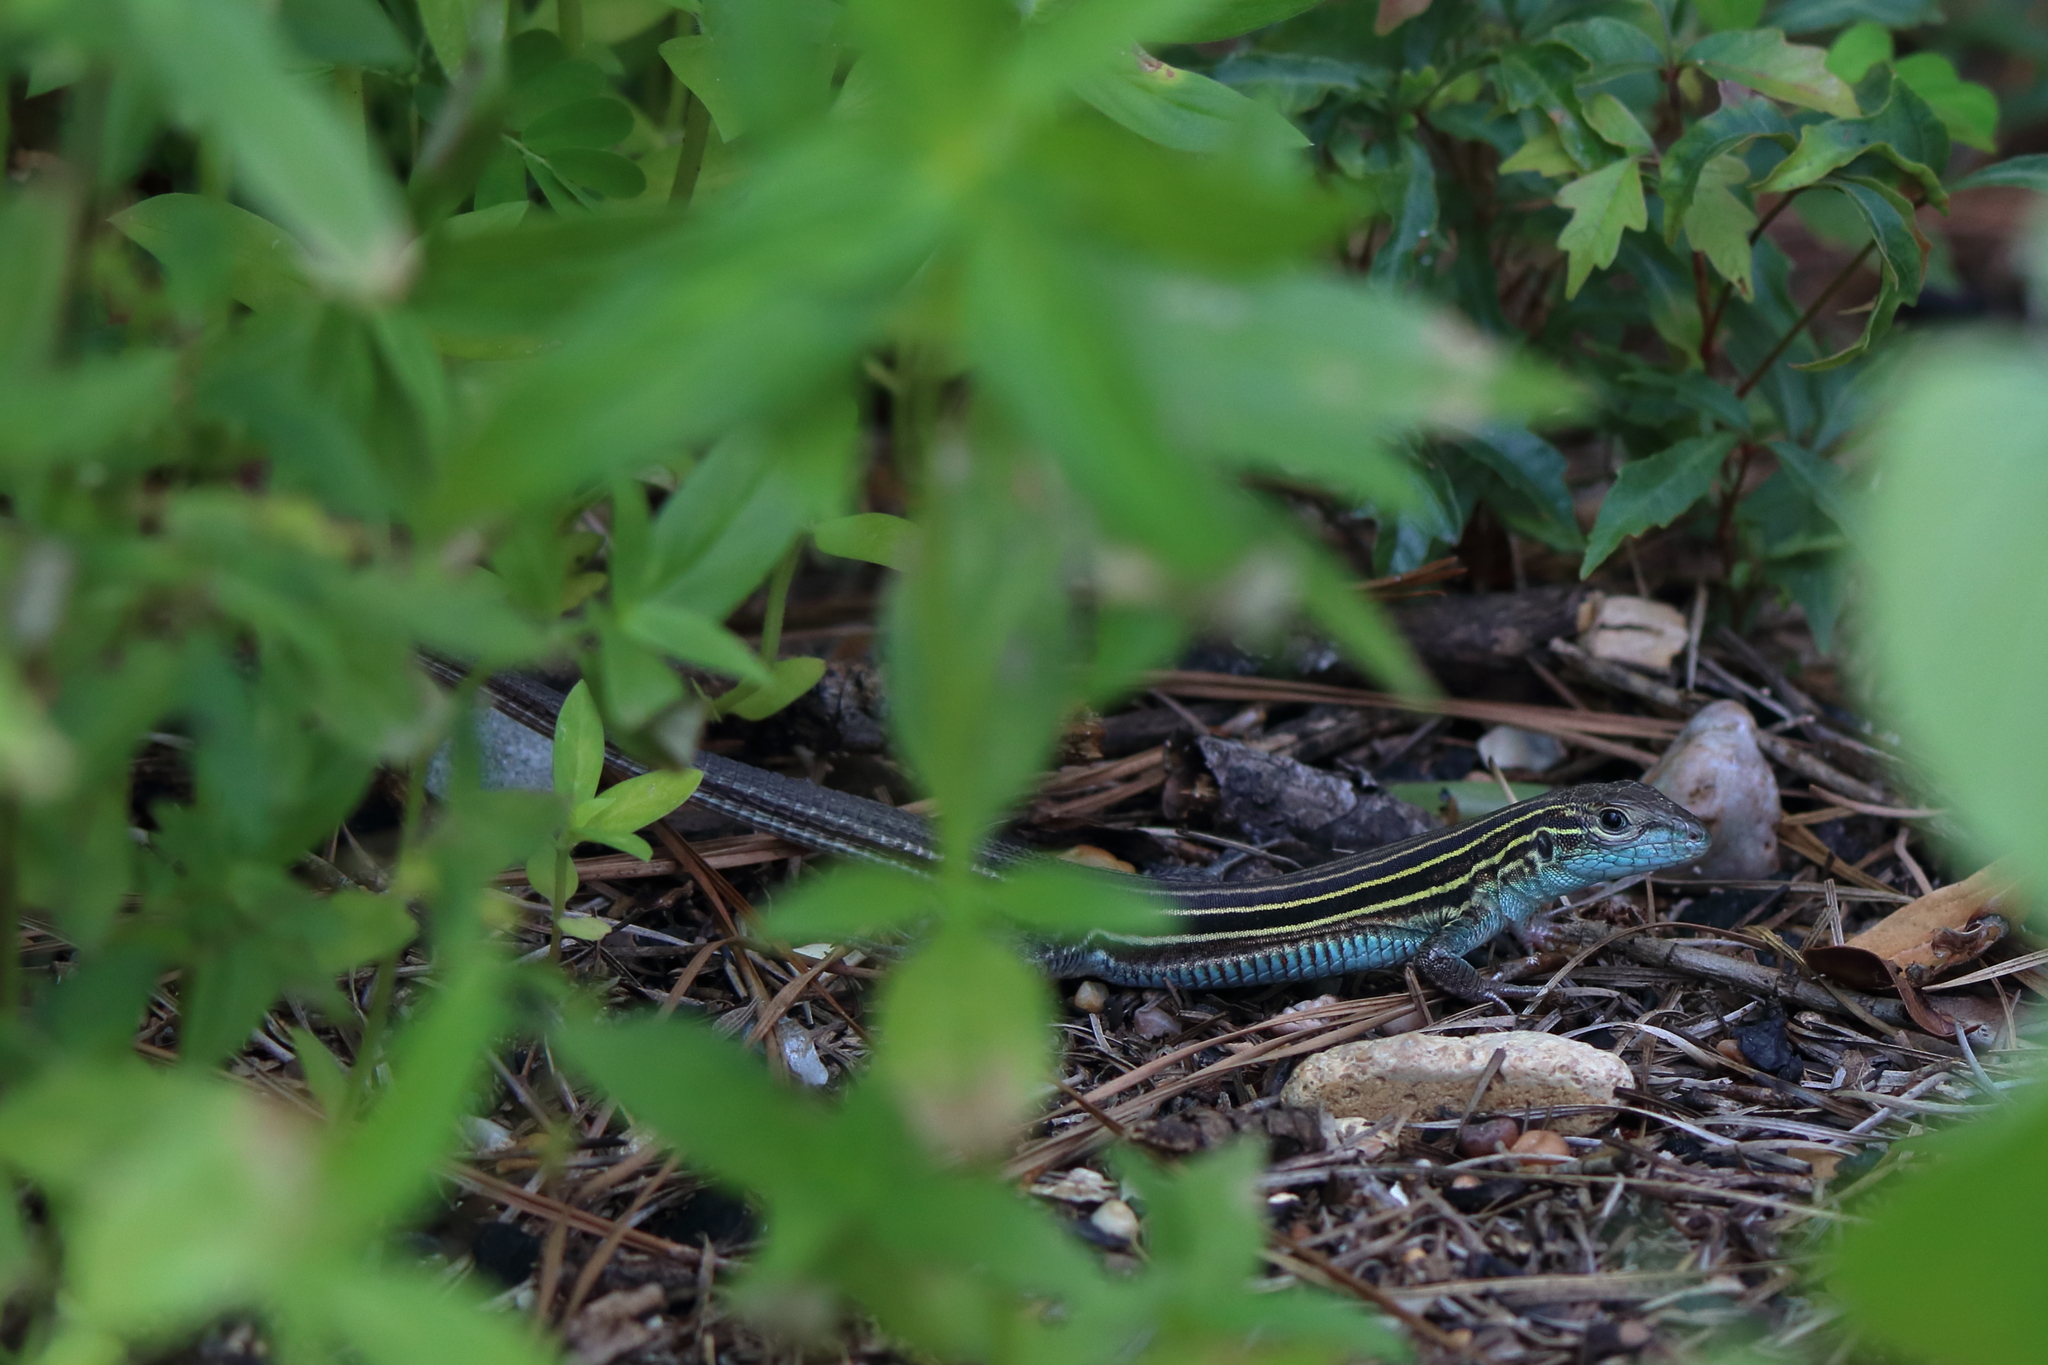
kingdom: Animalia
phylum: Chordata
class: Squamata
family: Teiidae
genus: Aspidoscelis
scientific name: Aspidoscelis sexlineatus
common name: Six-lined racerunner
